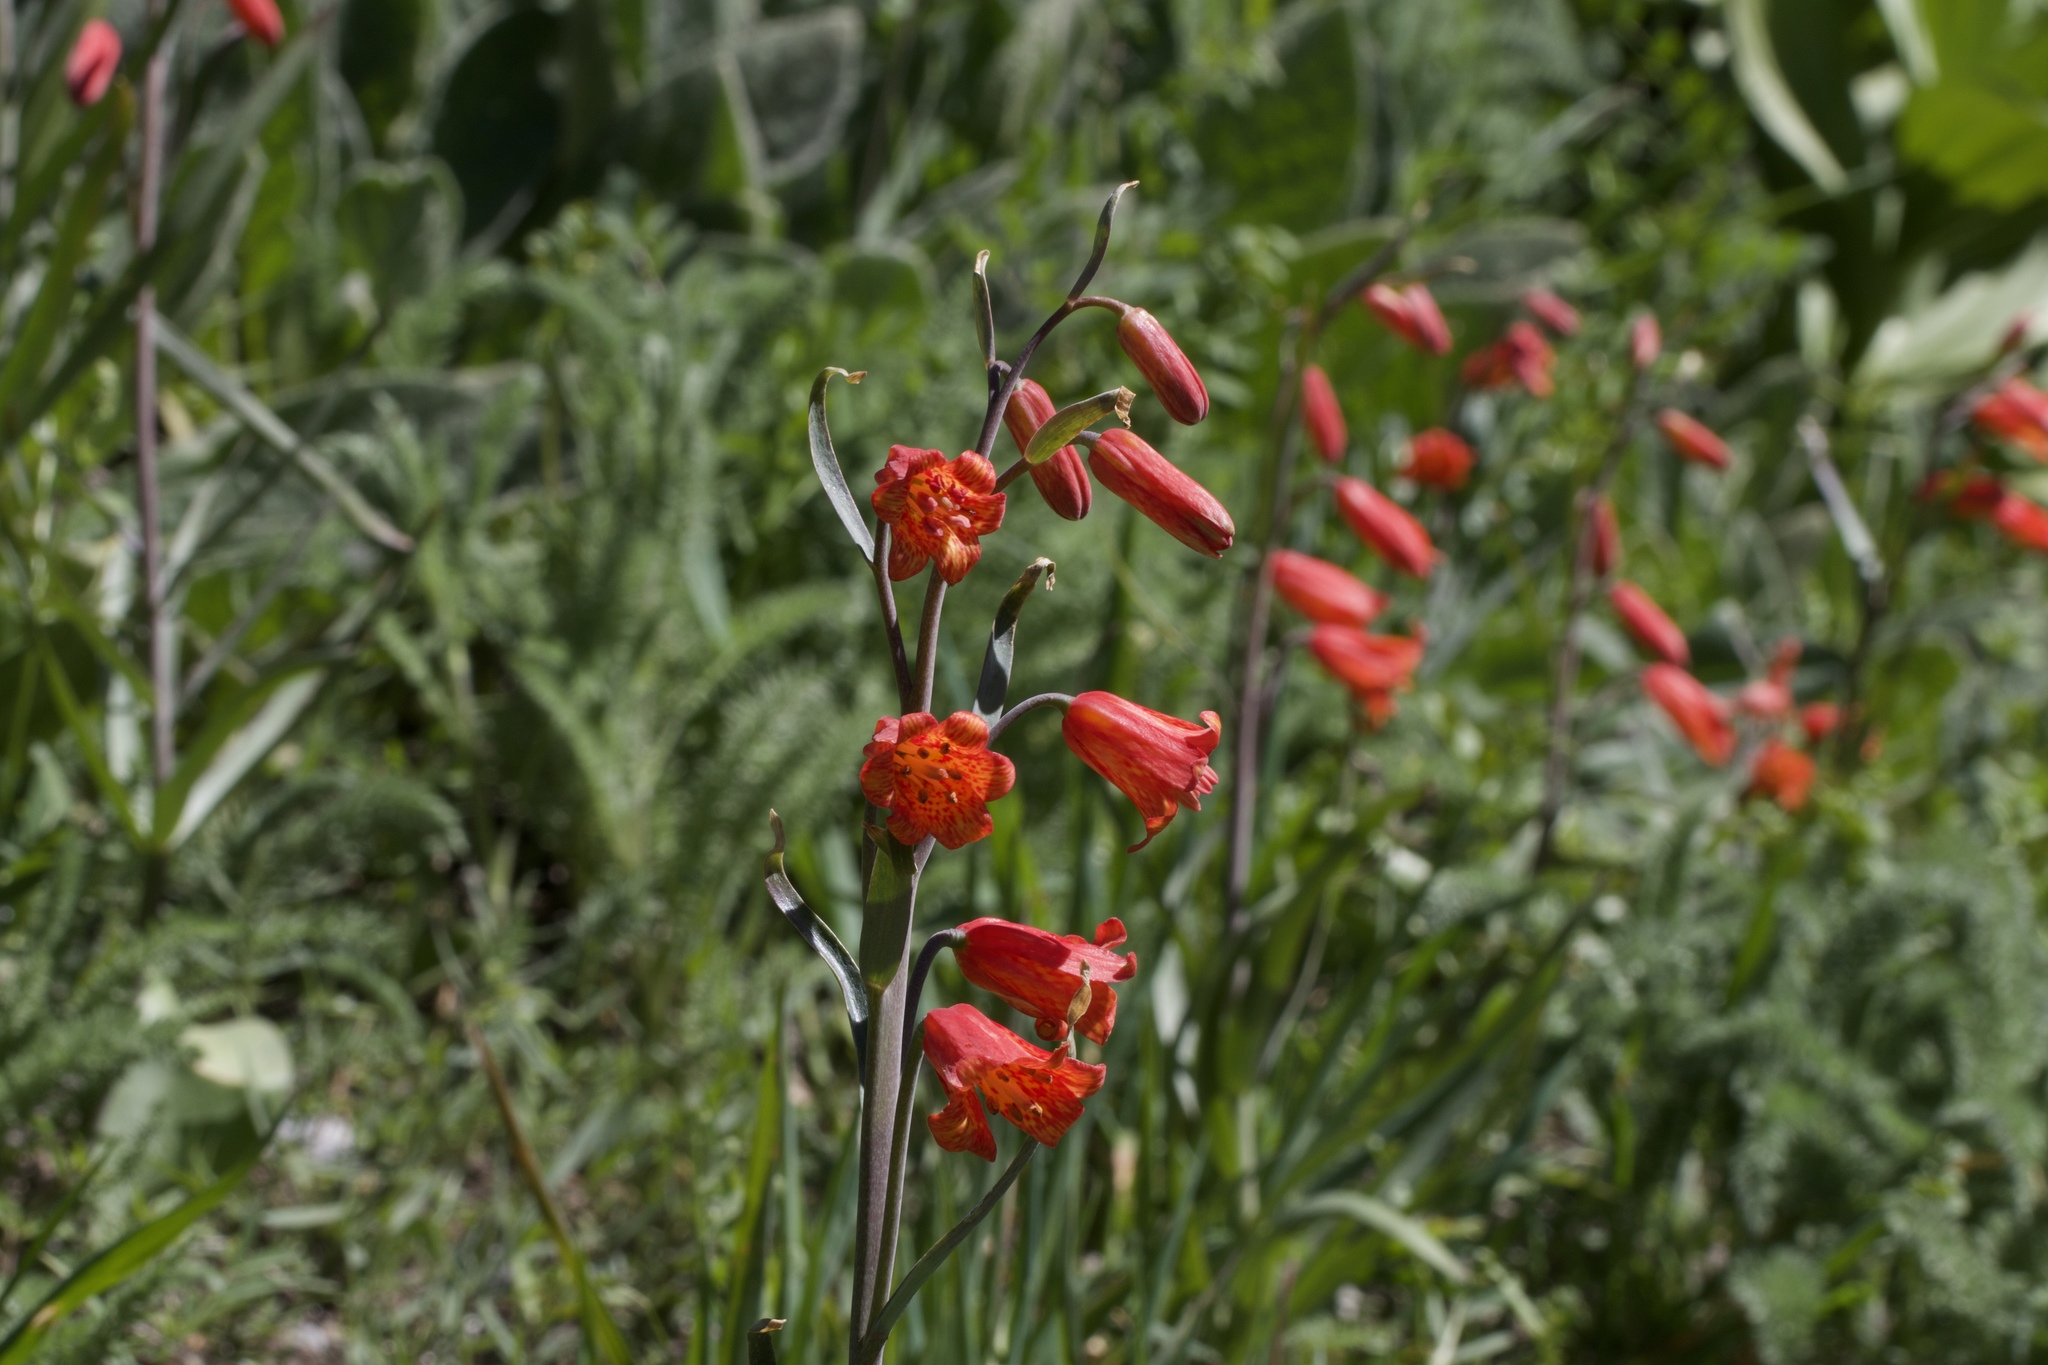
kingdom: Plantae
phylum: Tracheophyta
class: Liliopsida
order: Liliales
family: Liliaceae
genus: Fritillaria
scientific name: Fritillaria recurva
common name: Scarlet fritillary
